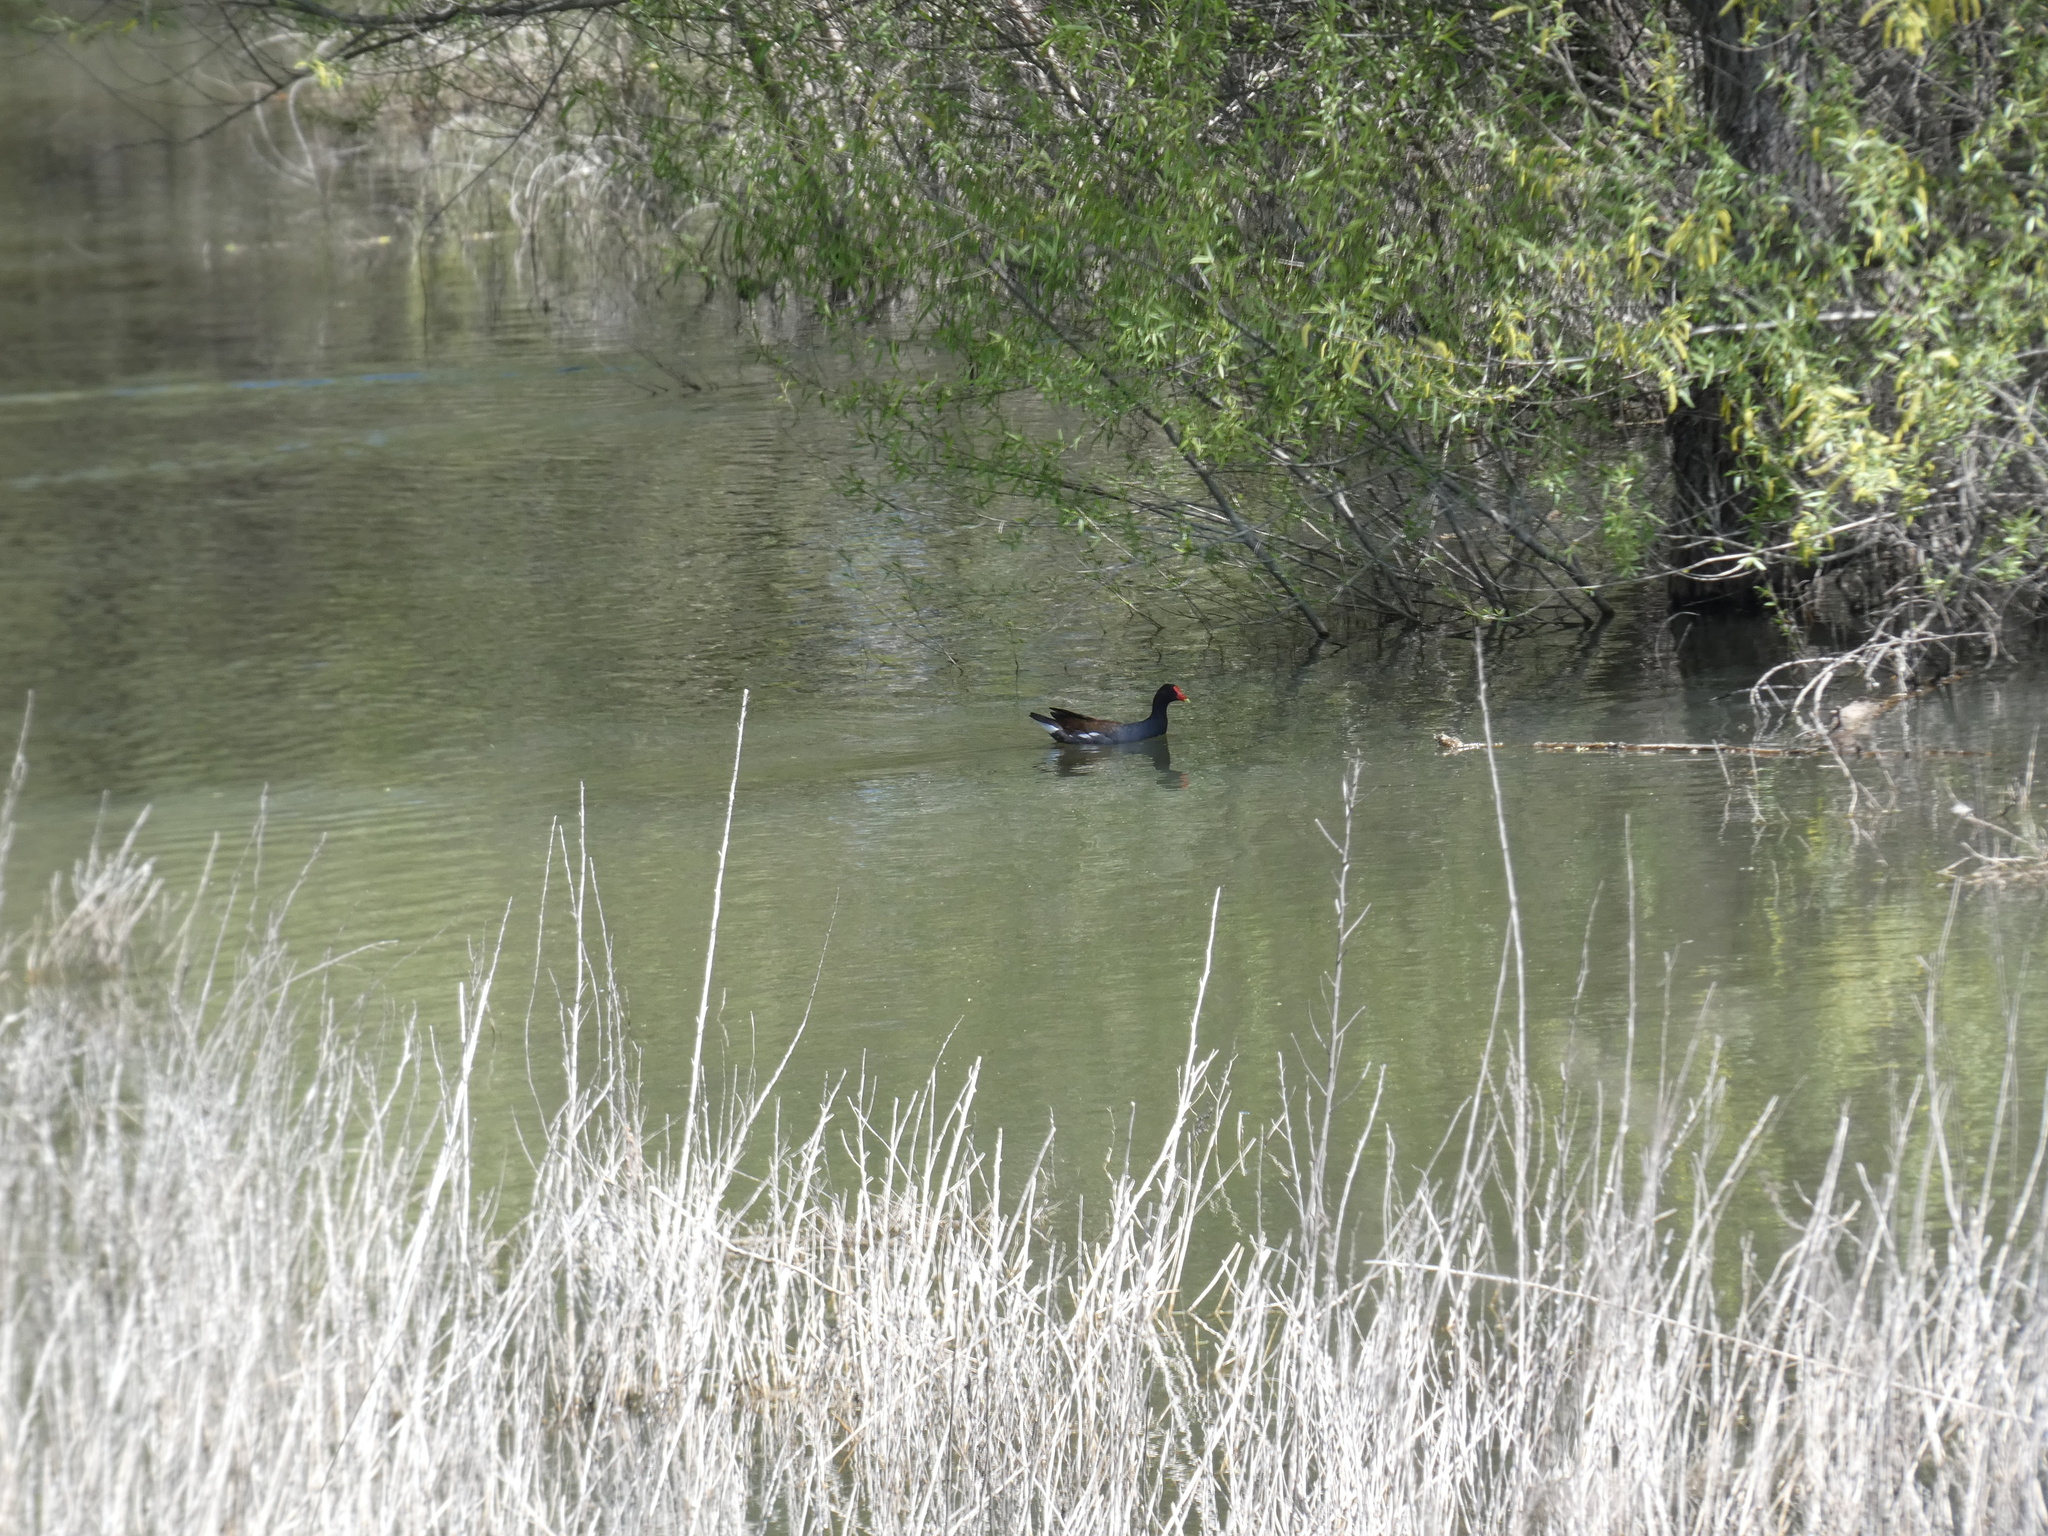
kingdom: Animalia
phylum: Chordata
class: Aves
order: Gruiformes
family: Rallidae
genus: Gallinula
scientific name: Gallinula chloropus
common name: Common moorhen
